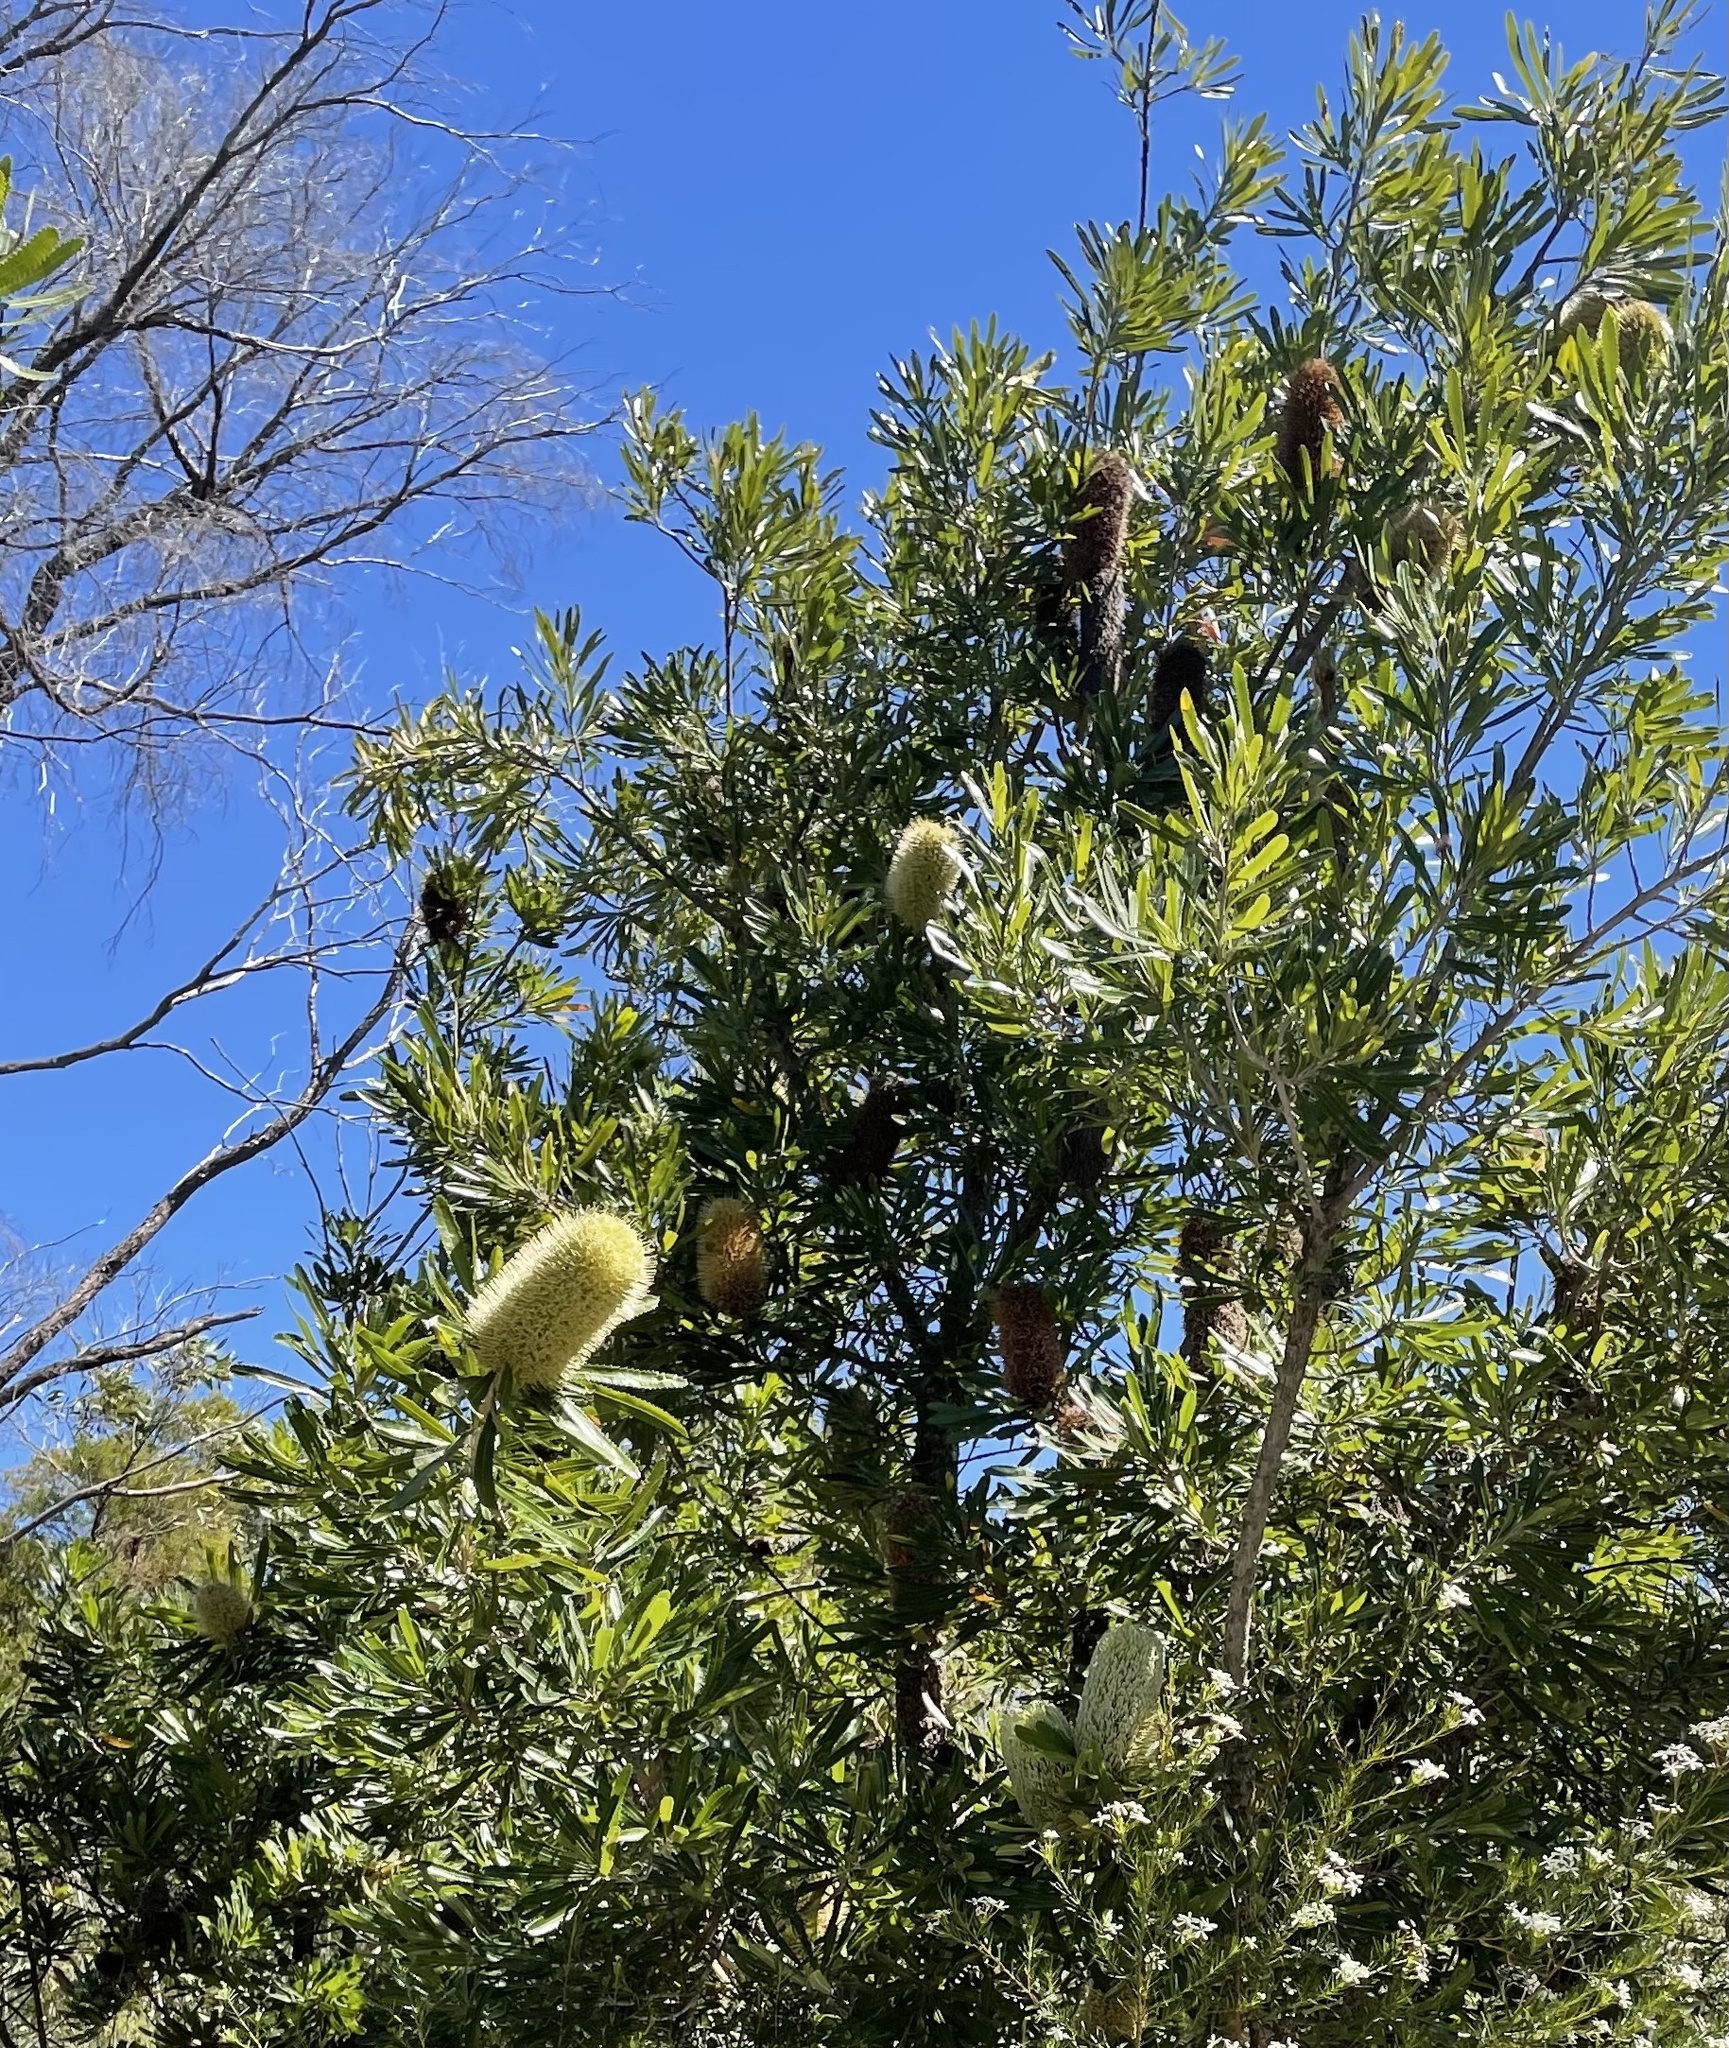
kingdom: Plantae
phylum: Tracheophyta
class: Magnoliopsida
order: Proteales
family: Proteaceae
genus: Banksia
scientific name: Banksia aemula
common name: Wallum banksia
